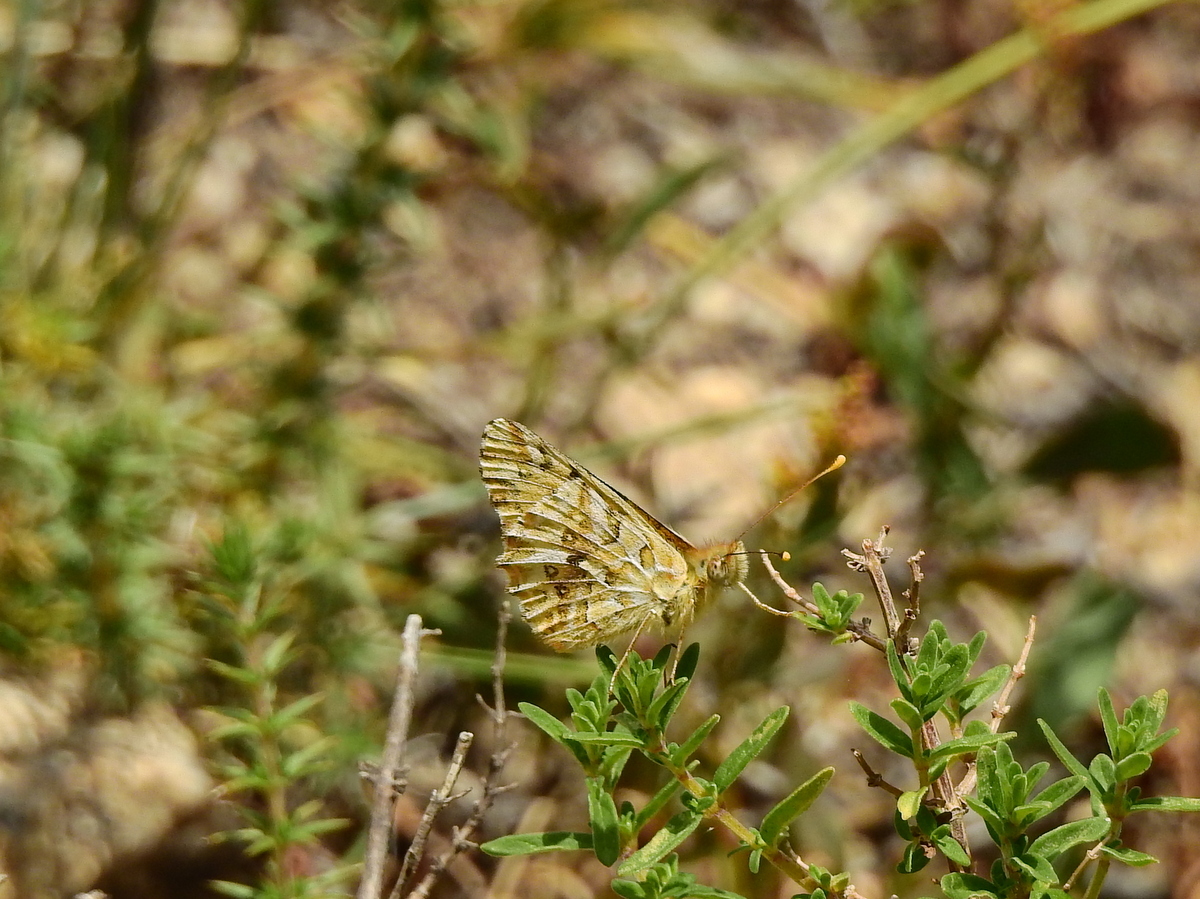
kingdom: Animalia
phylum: Arthropoda
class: Insecta
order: Lepidoptera
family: Nymphalidae
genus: Issoria
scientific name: Issoria Yramea lathonoides
